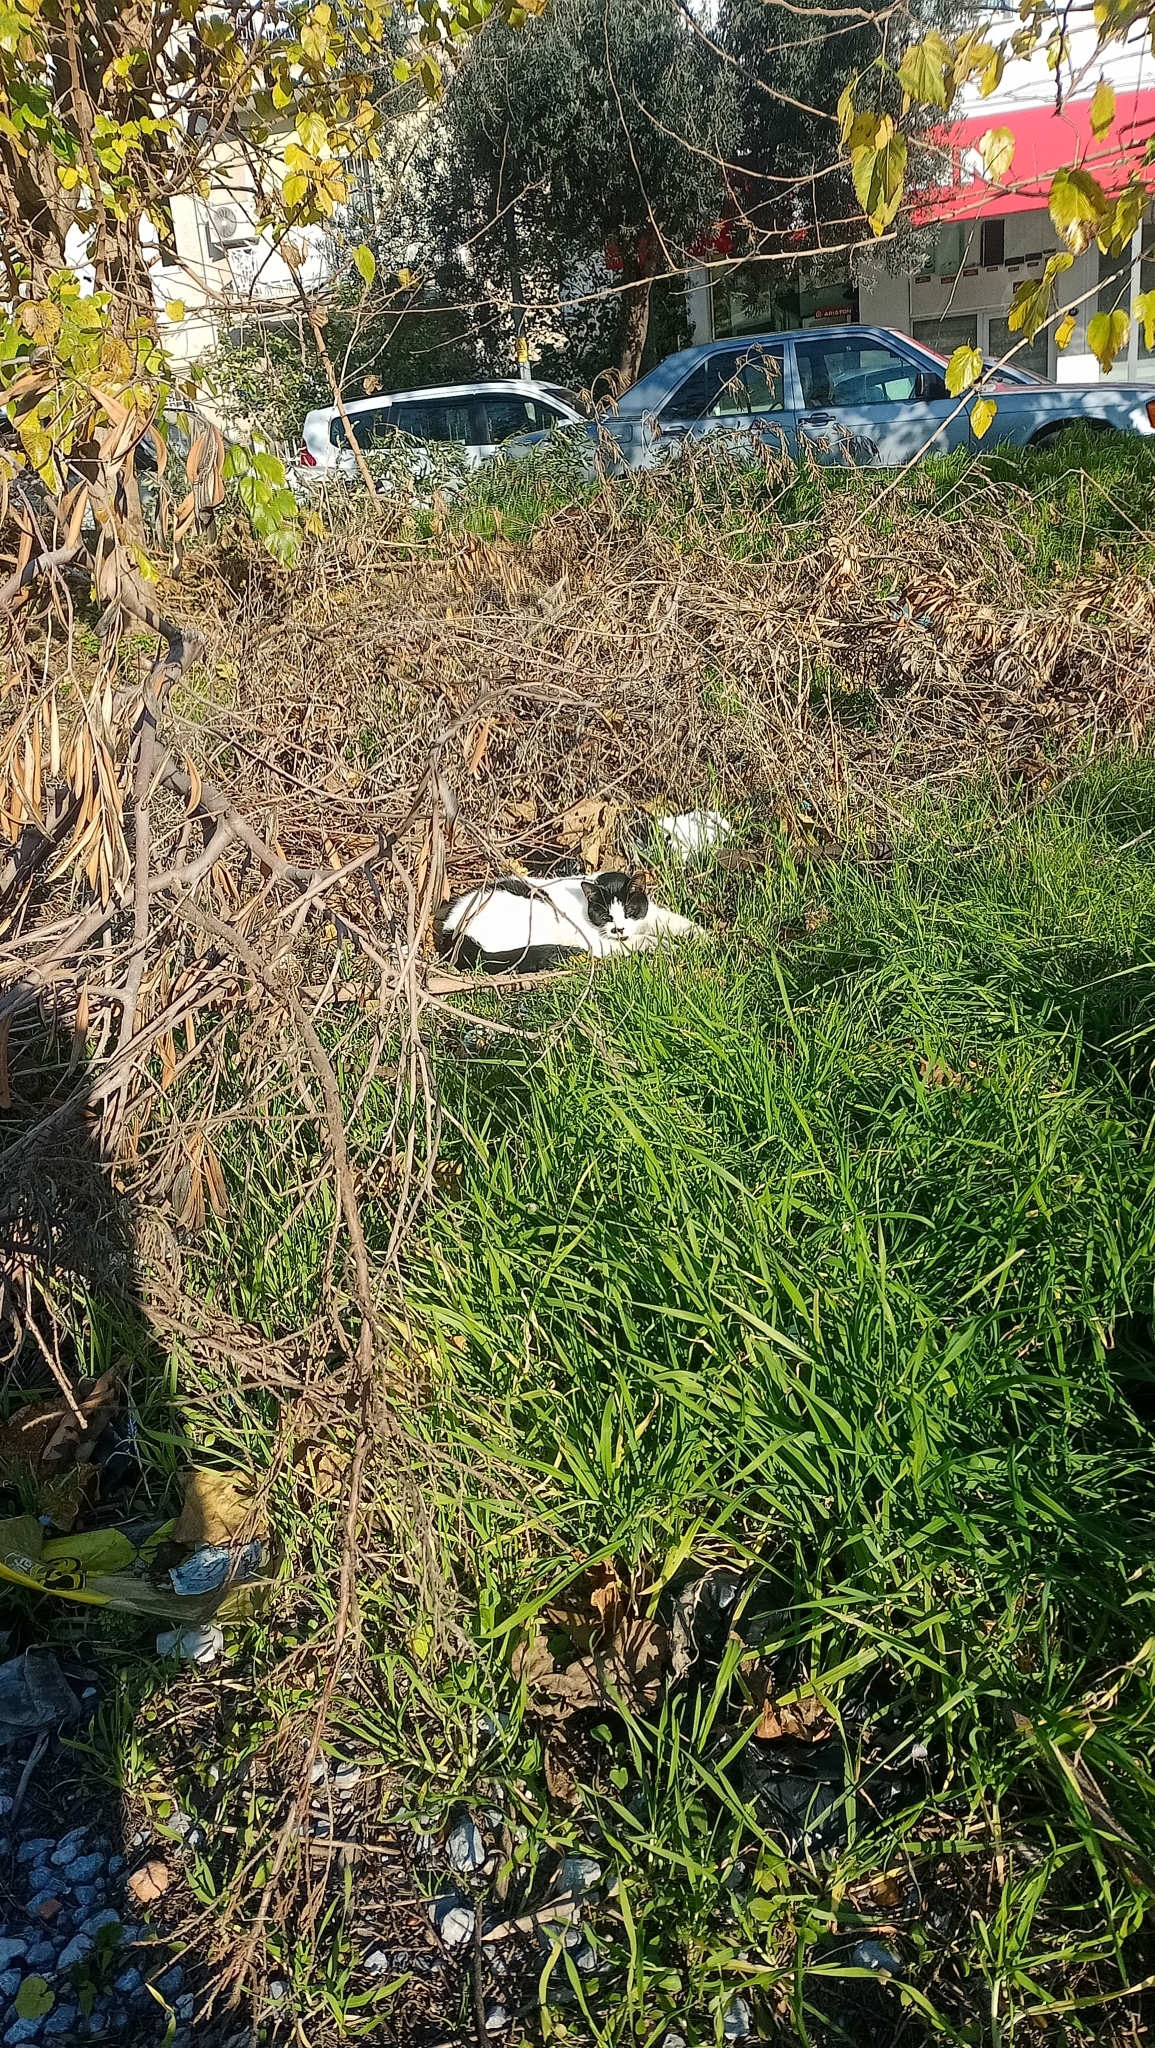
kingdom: Animalia
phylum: Chordata
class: Mammalia
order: Carnivora
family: Felidae
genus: Felis
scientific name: Felis catus
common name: Domestic cat
